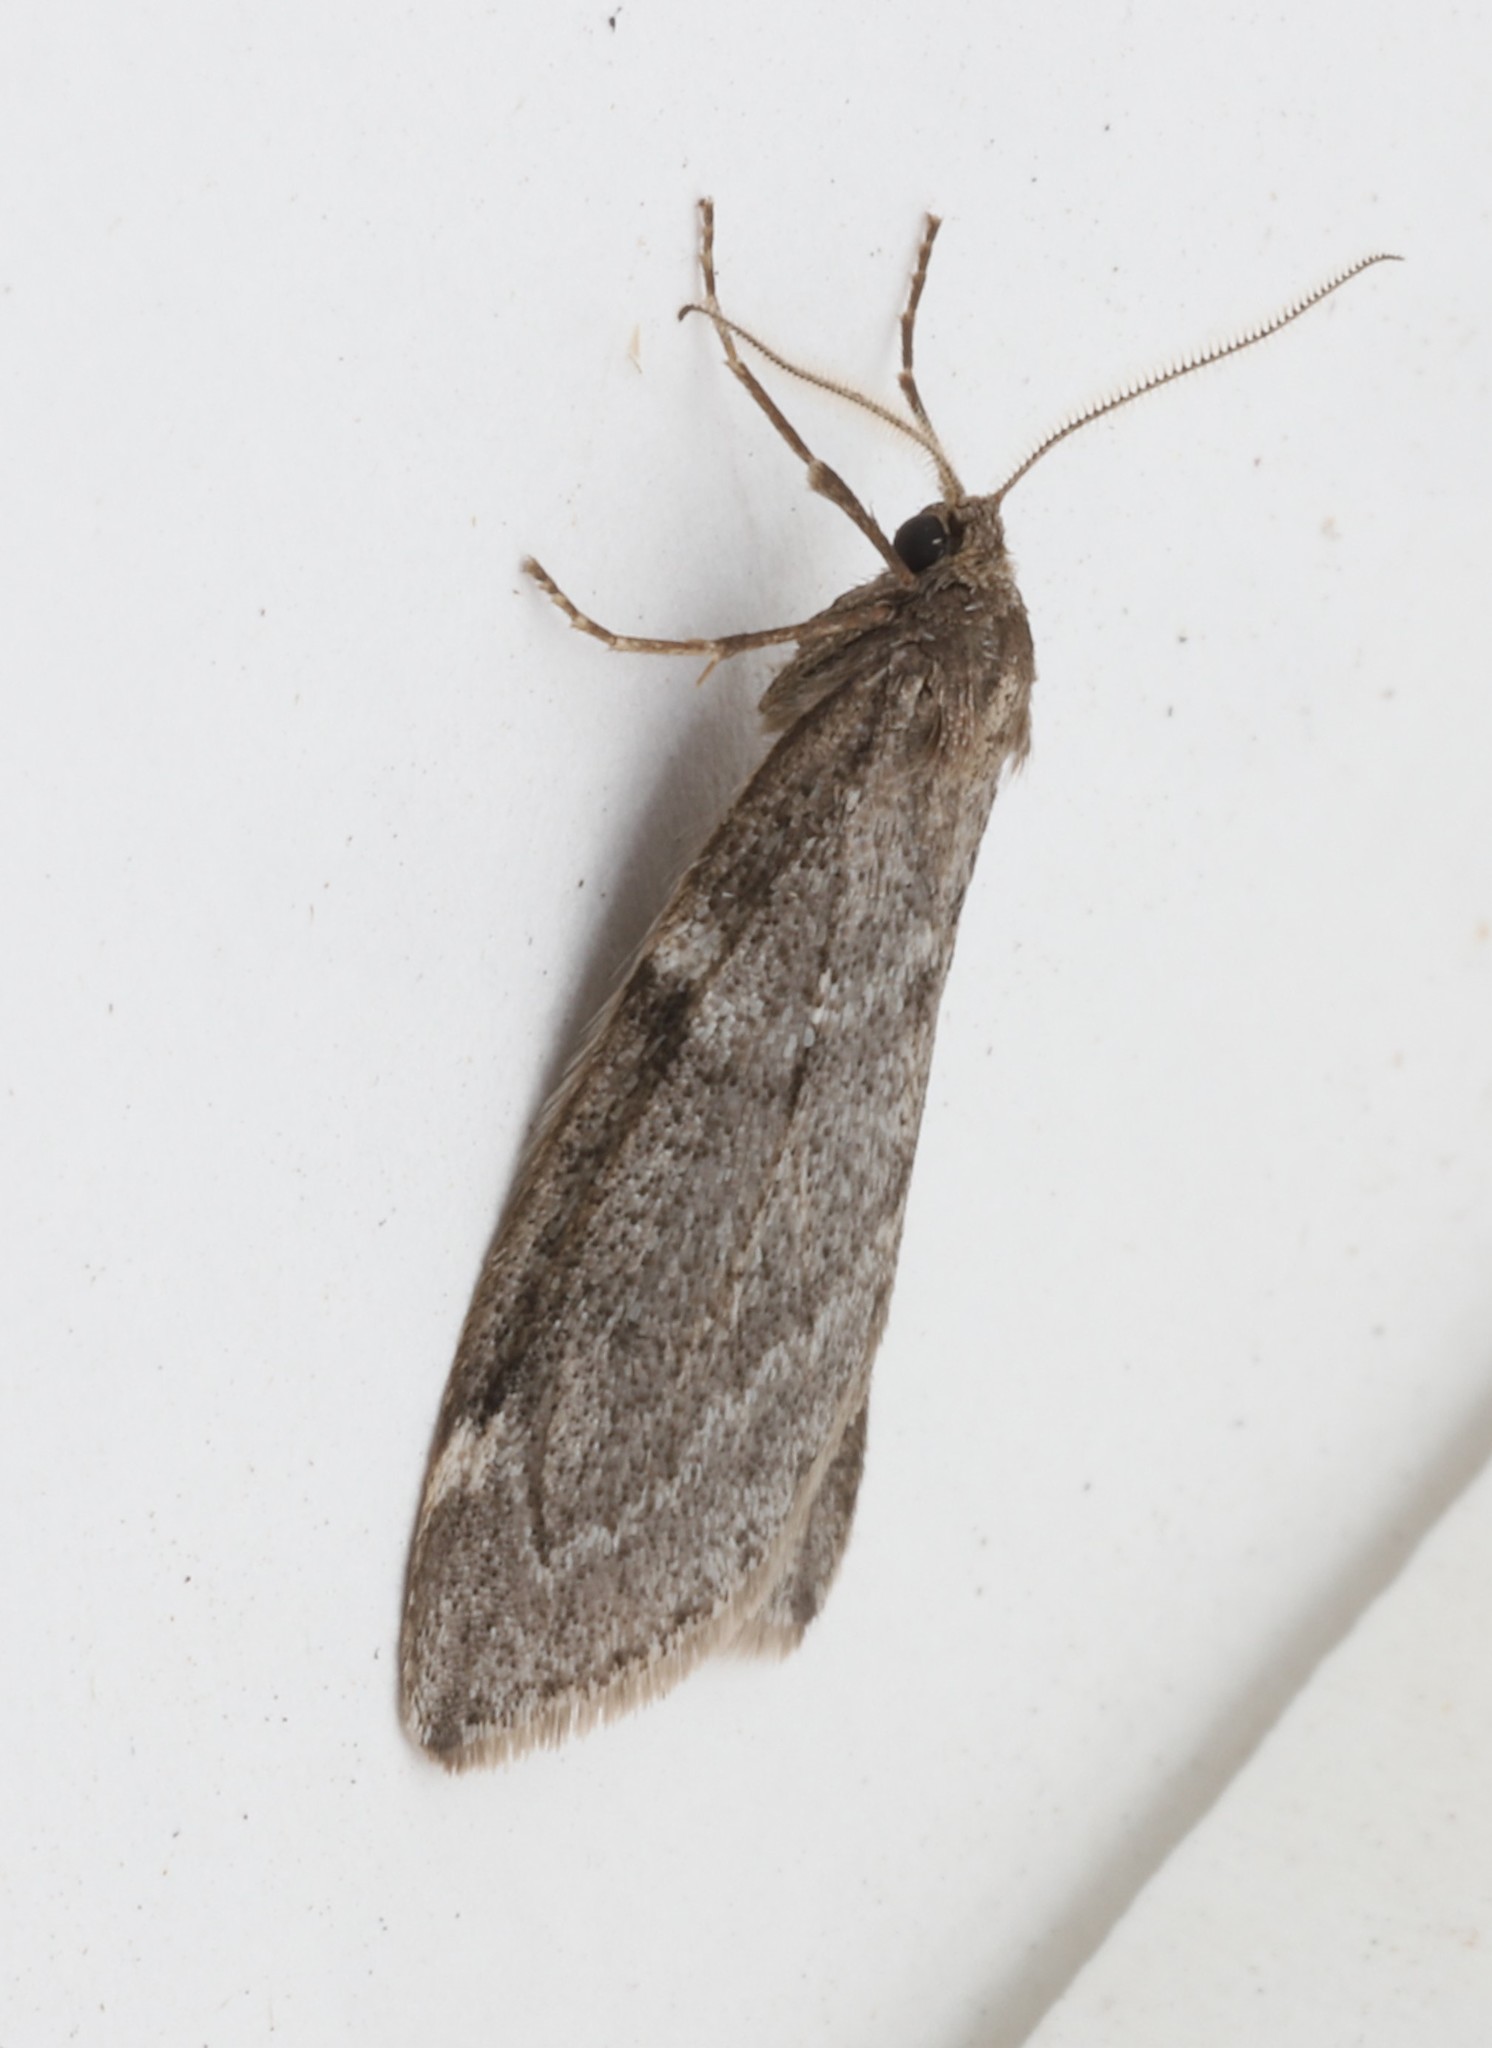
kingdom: Animalia
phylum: Arthropoda
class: Insecta
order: Lepidoptera
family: Geometridae
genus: Alsophila
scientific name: Alsophila pometaria
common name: Fall cankerworm
